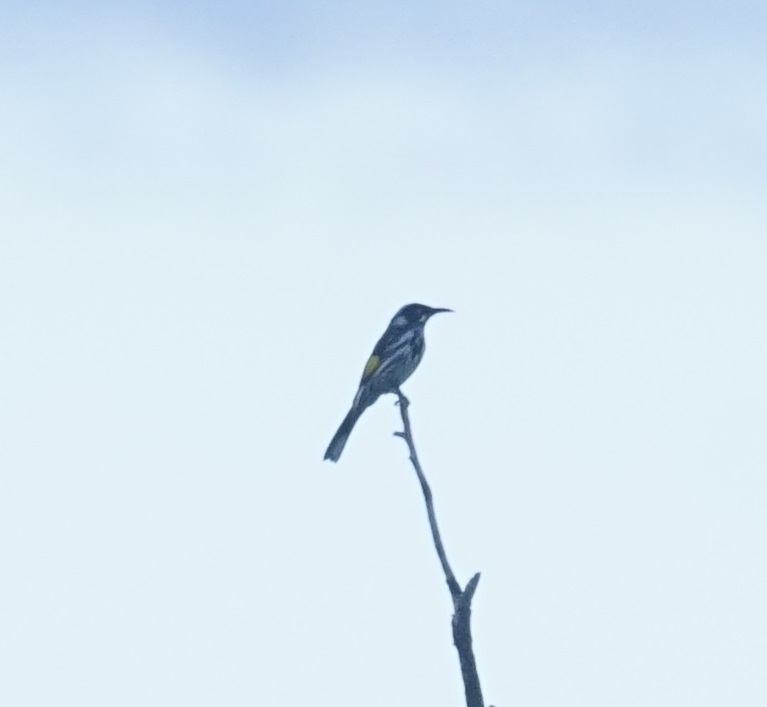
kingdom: Animalia
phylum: Chordata
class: Aves
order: Passeriformes
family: Meliphagidae
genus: Phylidonyris
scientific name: Phylidonyris novaehollandiae
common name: New holland honeyeater
